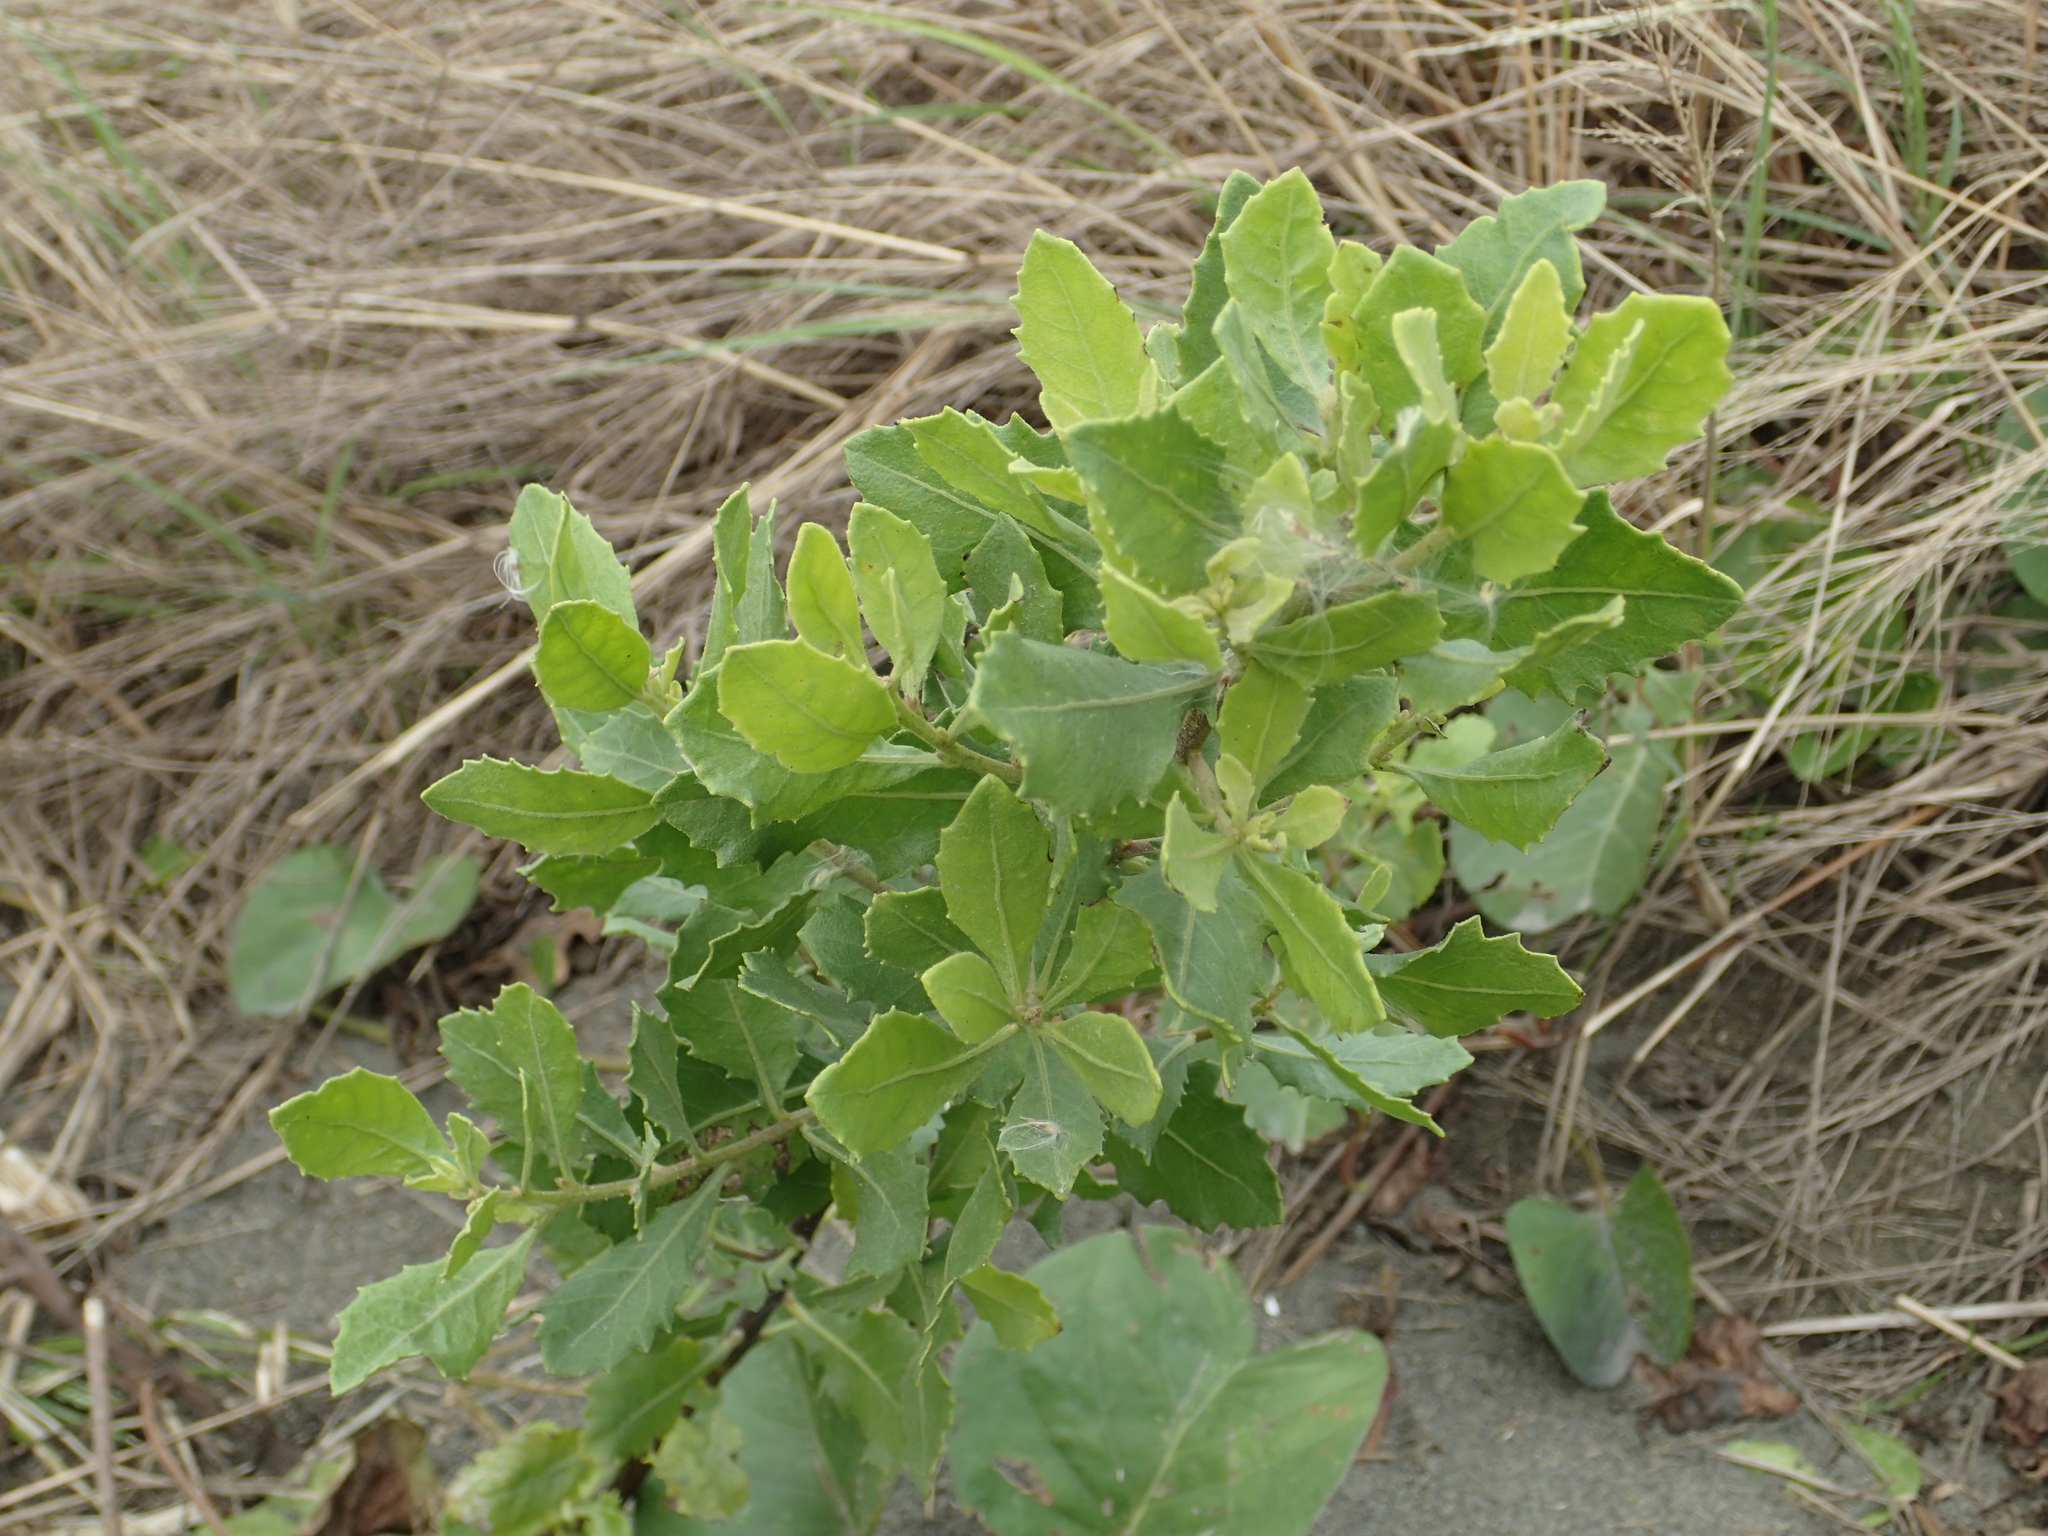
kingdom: Plantae
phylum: Tracheophyta
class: Magnoliopsida
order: Asterales
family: Asteraceae
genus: Pluchea
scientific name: Pluchea indica
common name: Indian fleabane
